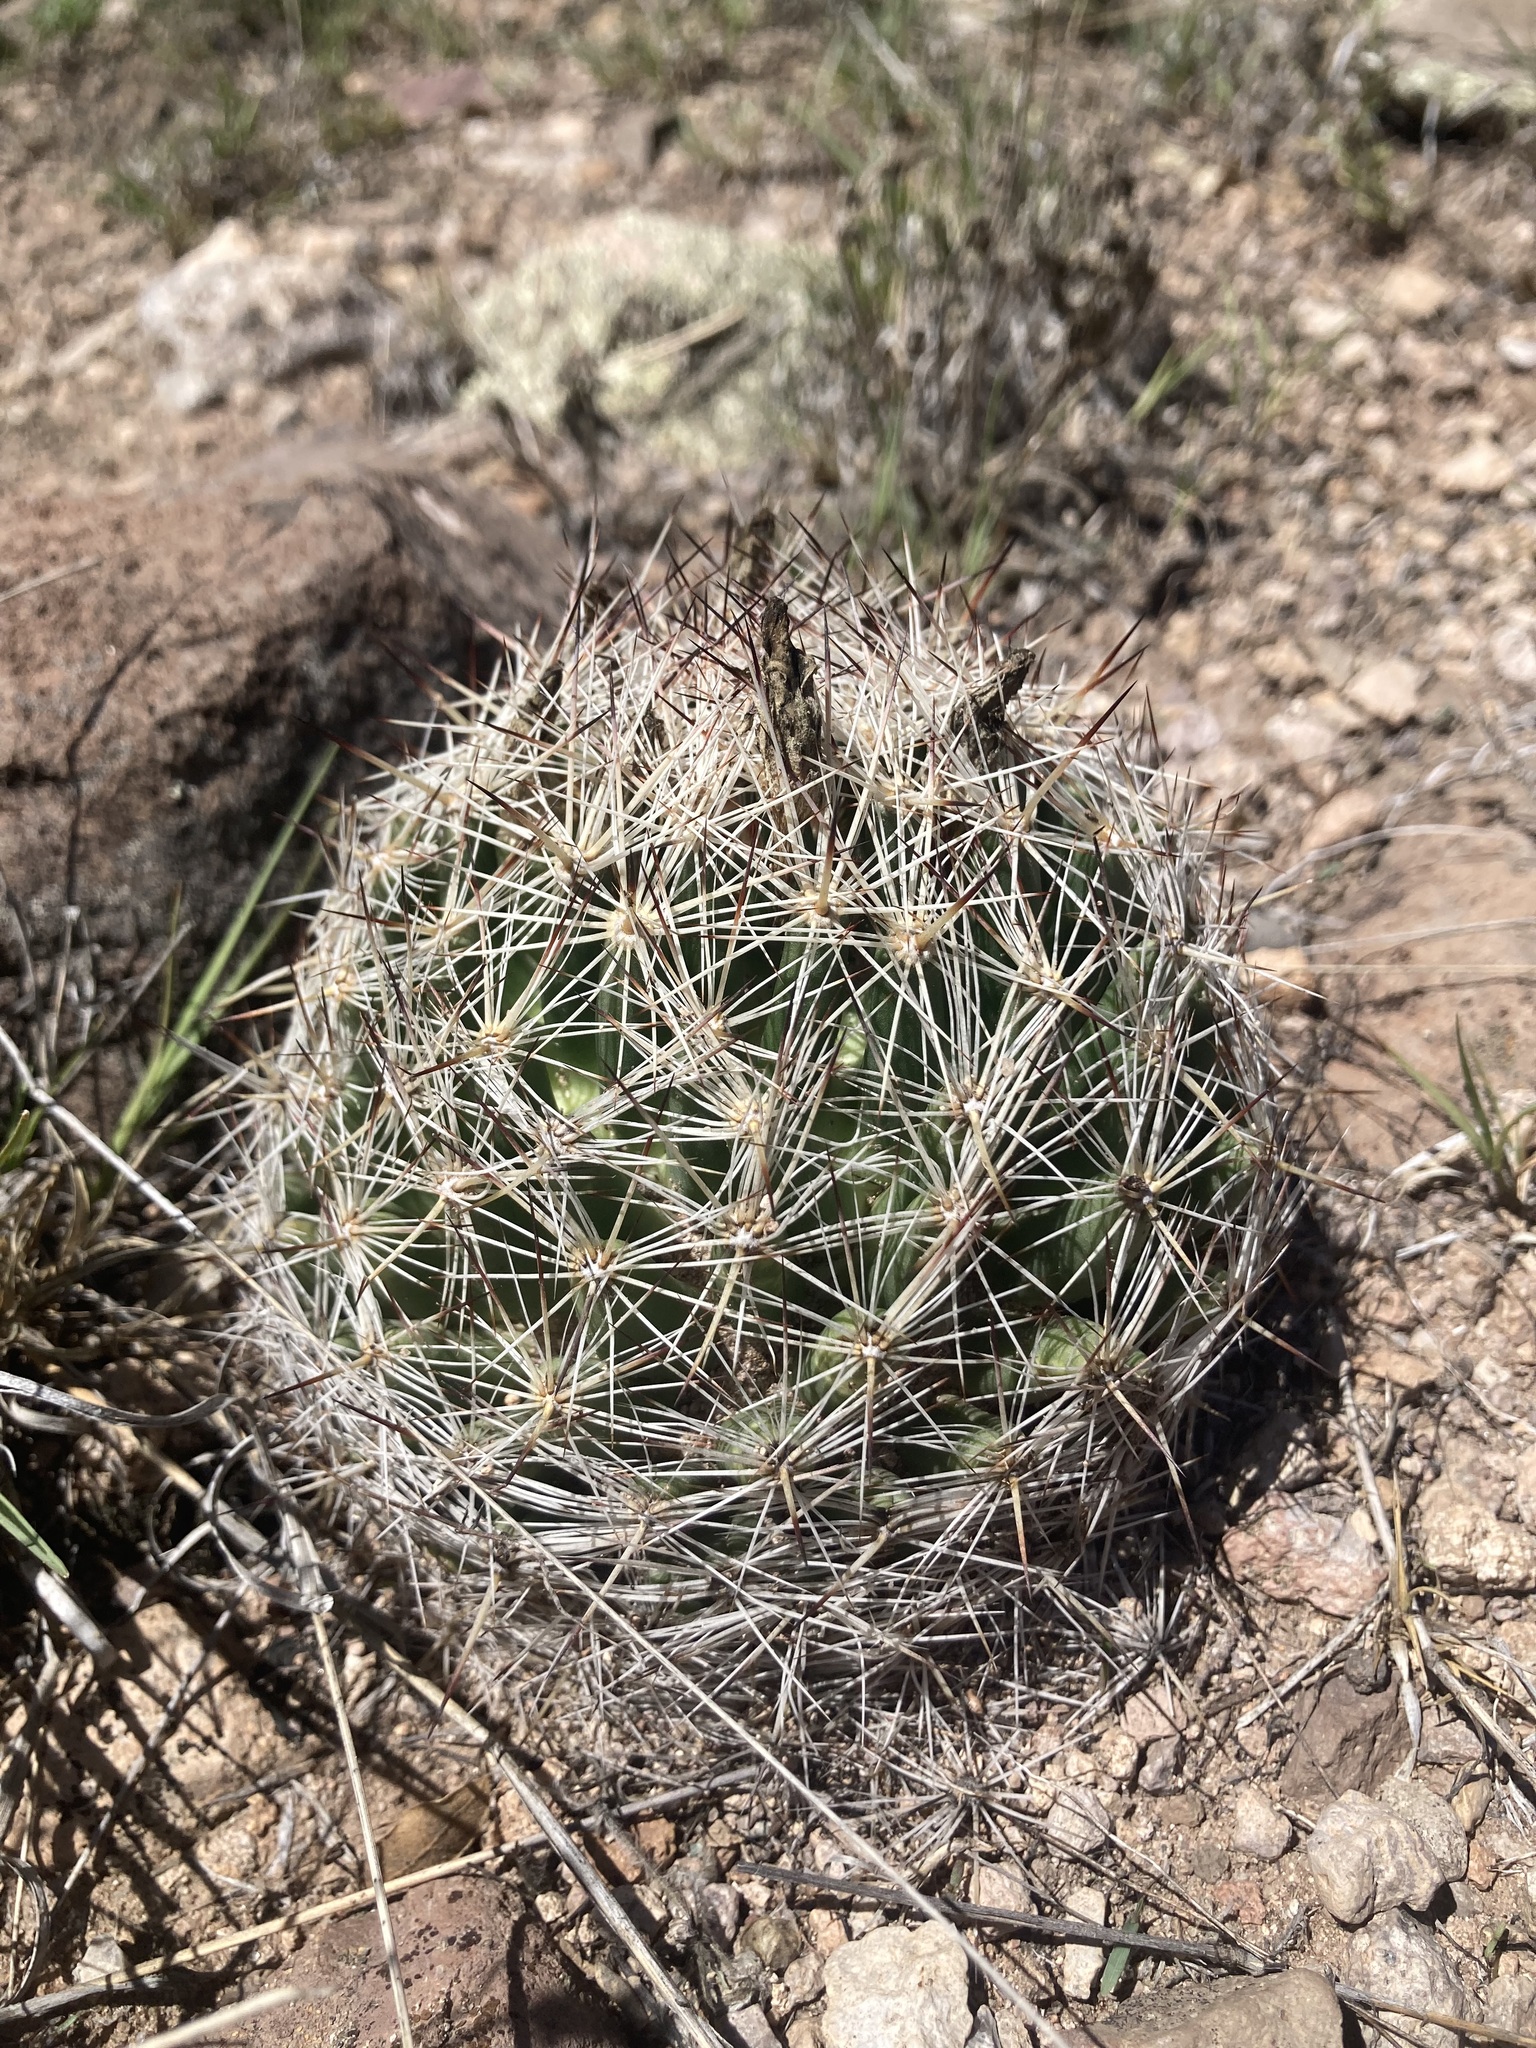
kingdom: Plantae
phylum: Tracheophyta
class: Magnoliopsida
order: Caryophyllales
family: Cactaceae
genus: Pelecyphora
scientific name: Pelecyphora vivipara
